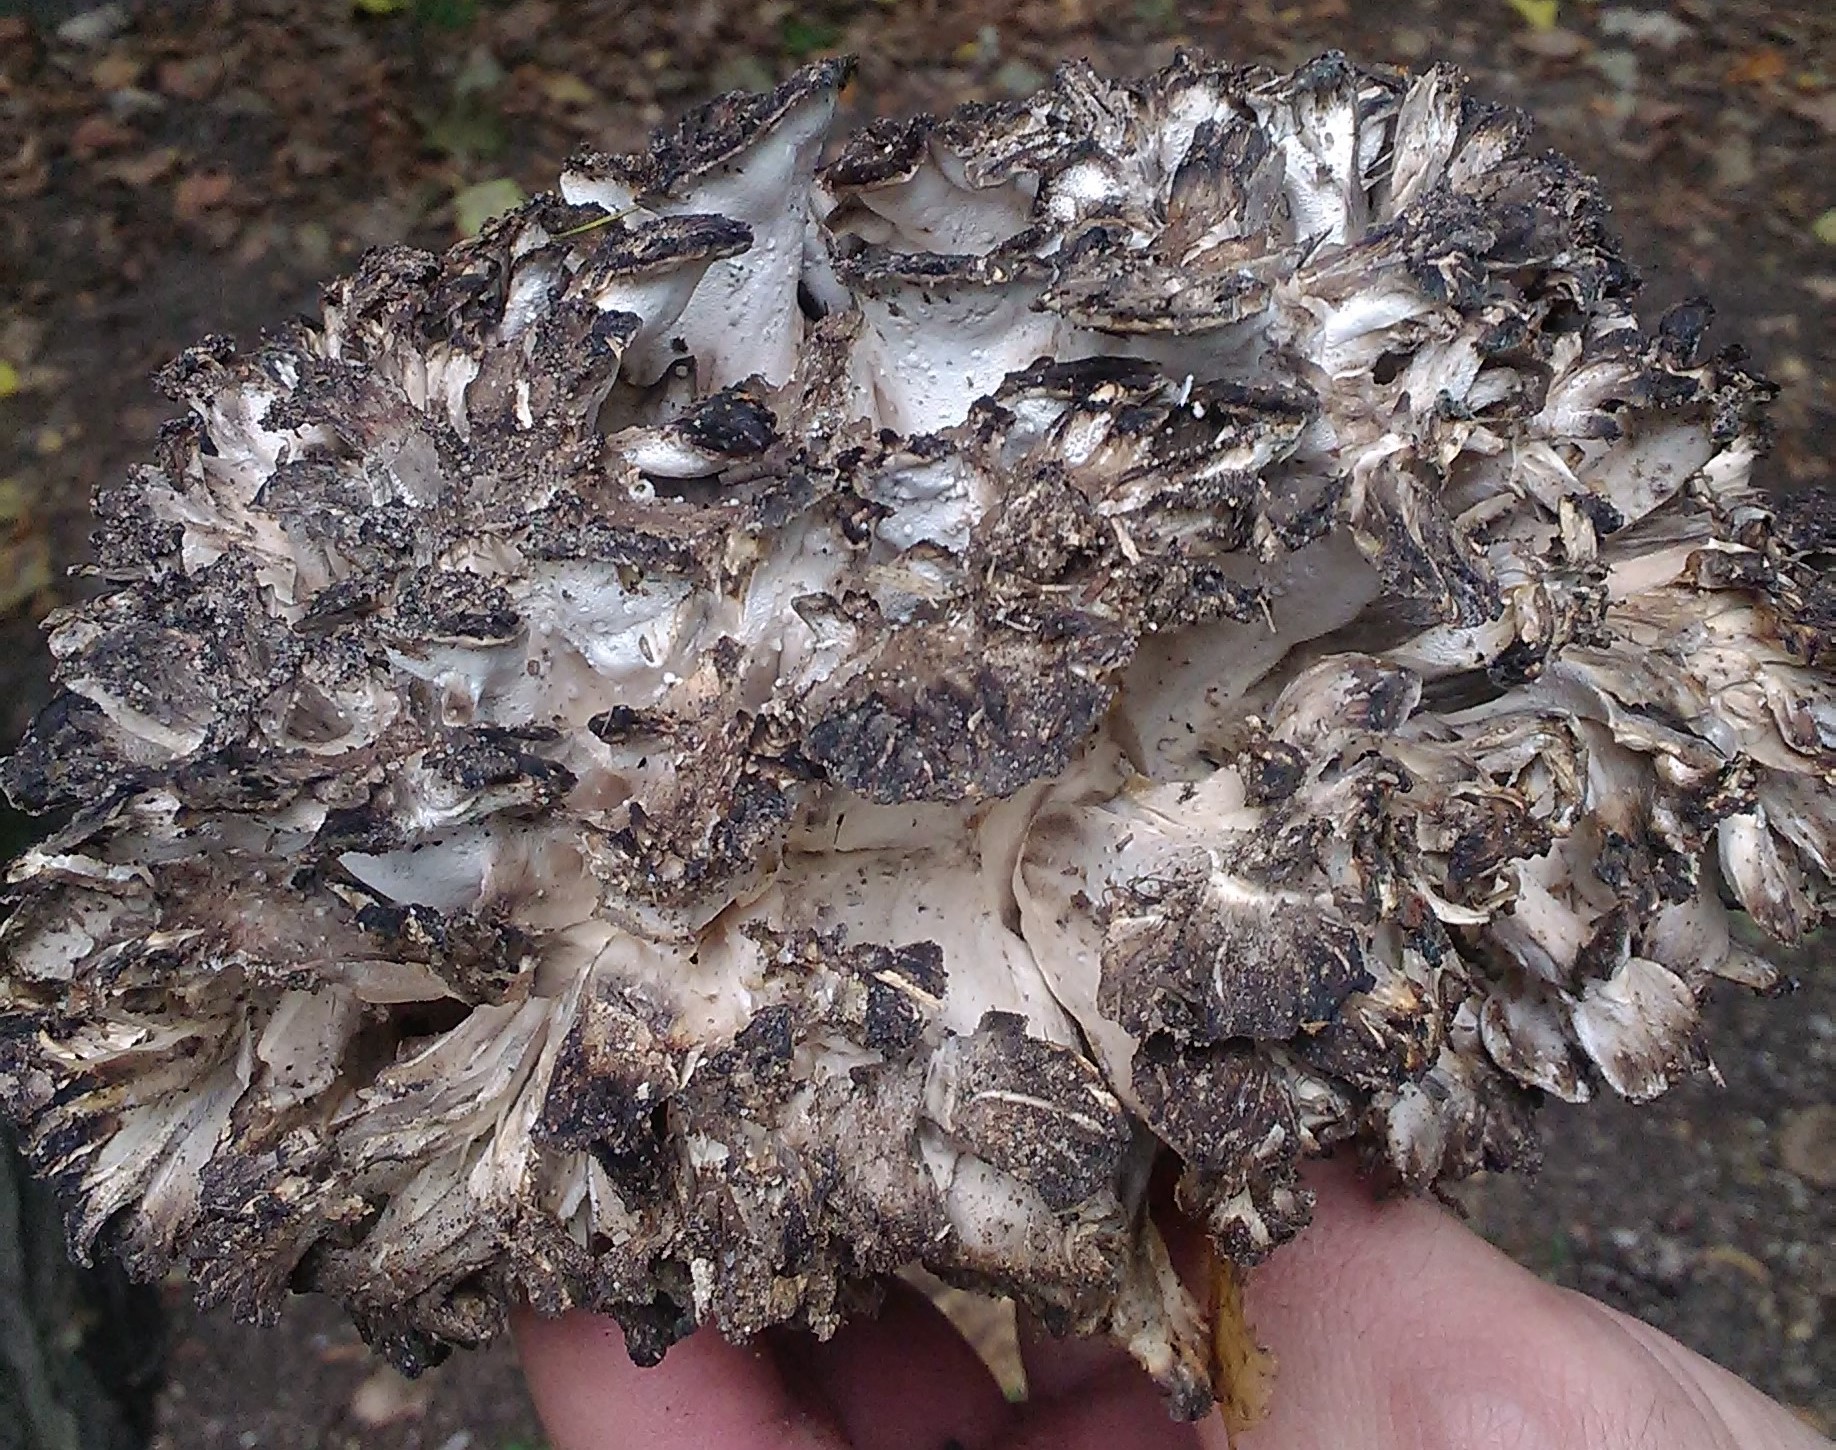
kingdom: Fungi
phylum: Basidiomycota
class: Agaricomycetes
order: Polyporales
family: Grifolaceae
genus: Grifola
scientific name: Grifola frondosa
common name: Hen of the woods
